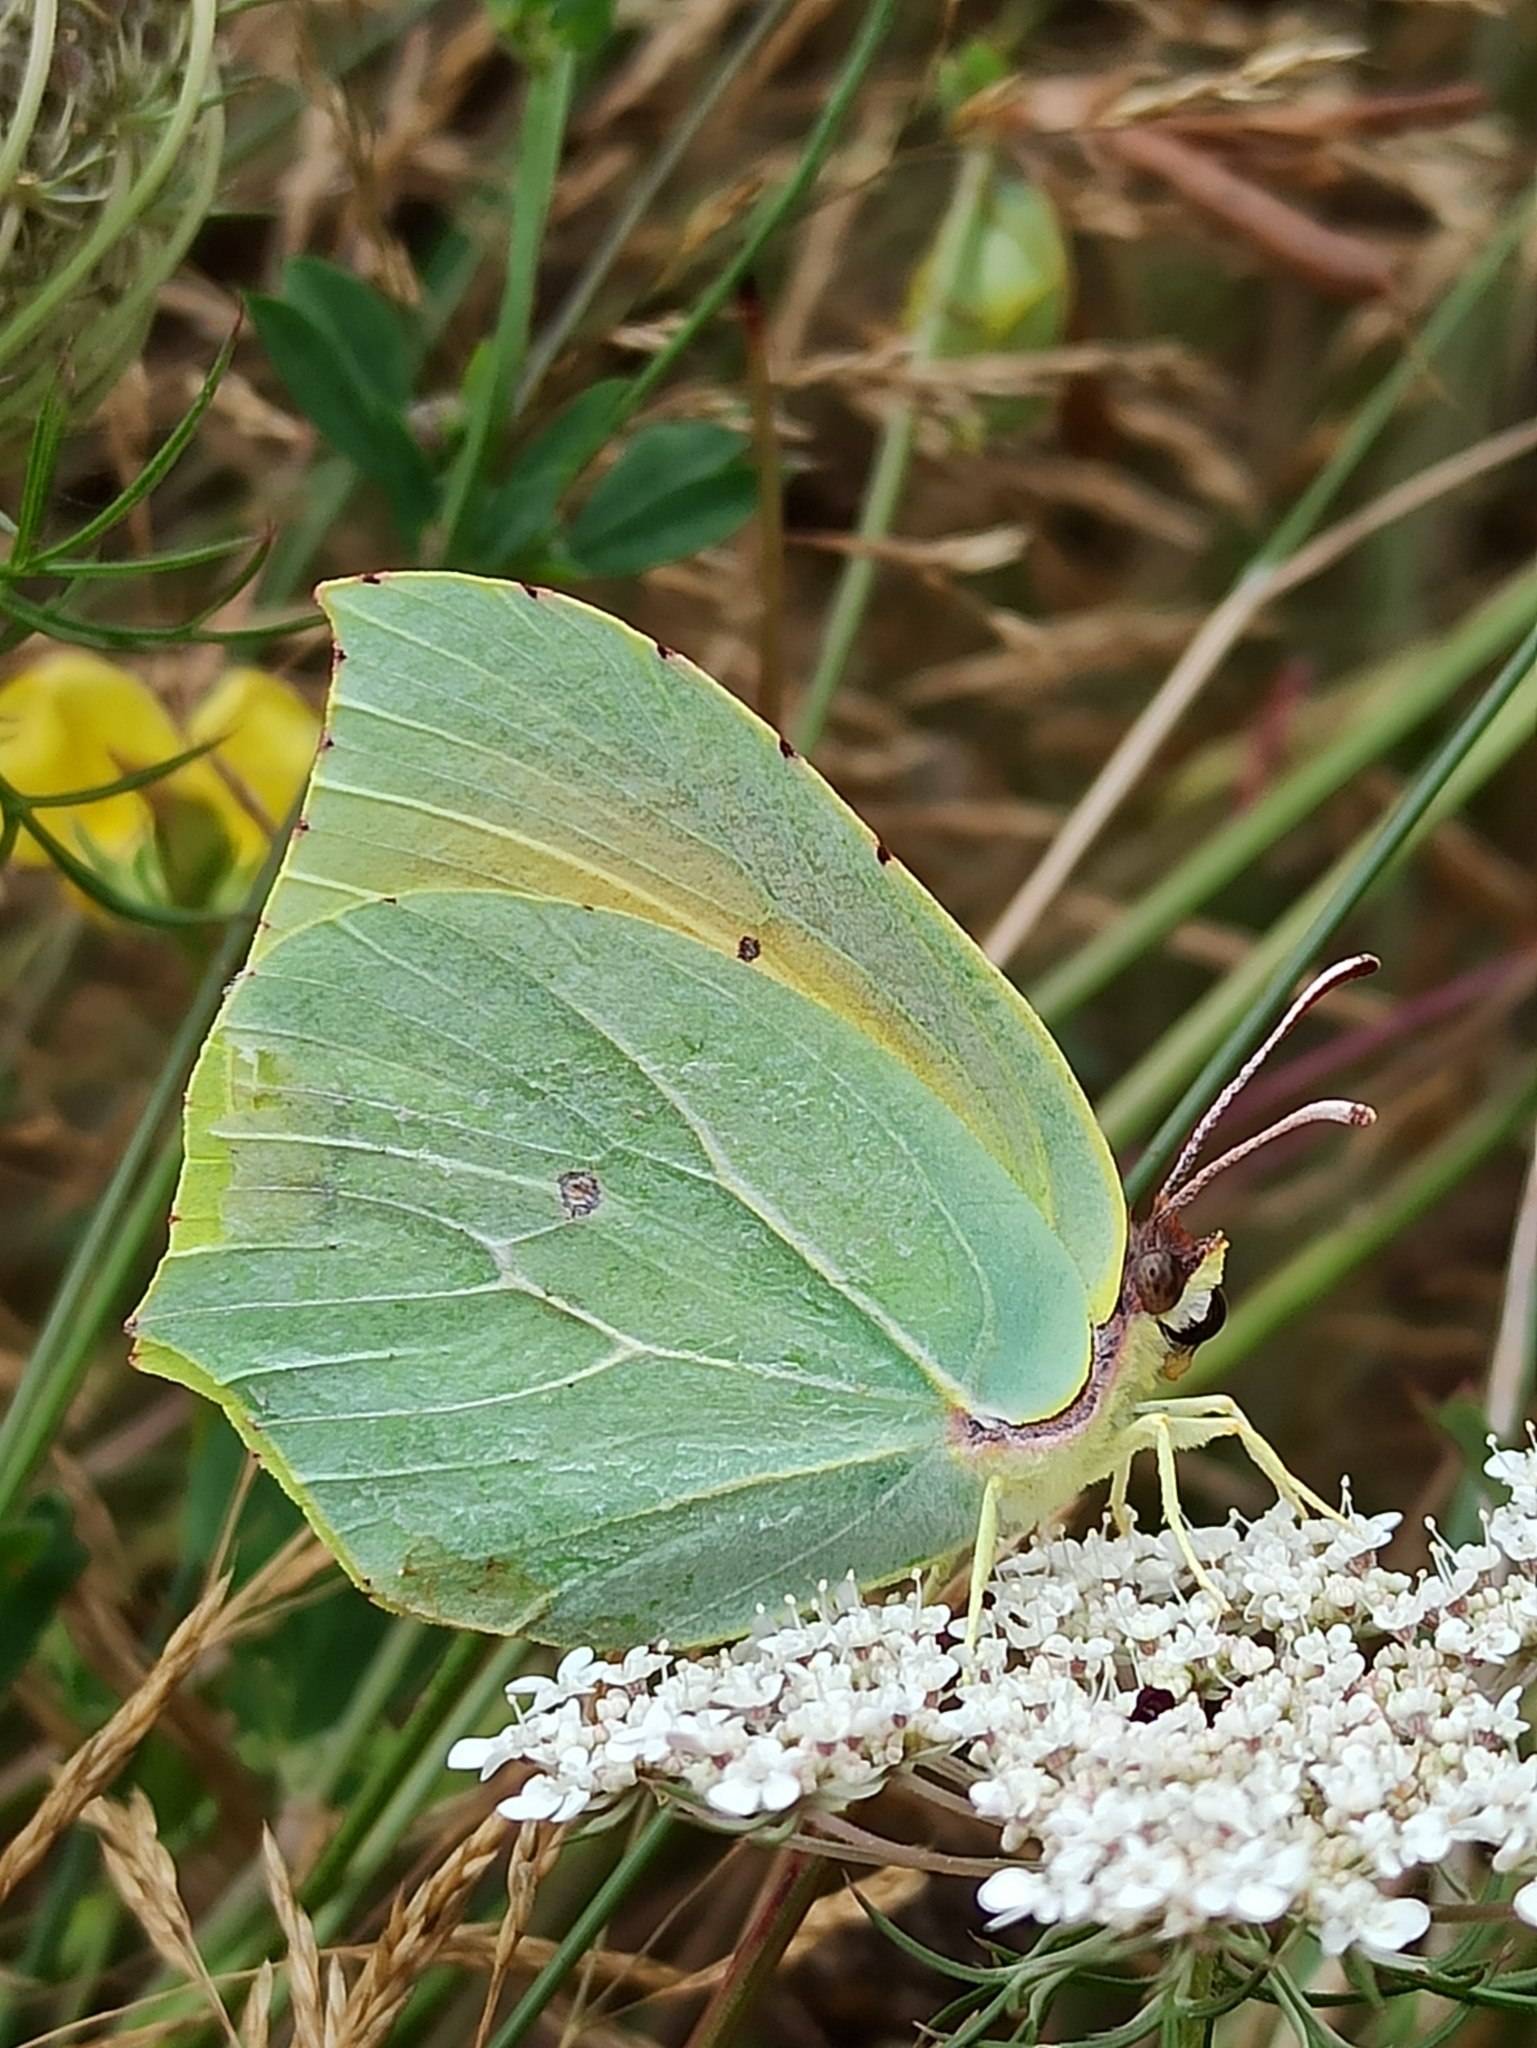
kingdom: Animalia
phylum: Arthropoda
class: Insecta
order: Lepidoptera
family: Pieridae
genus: Gonepteryx
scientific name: Gonepteryx cleopatra
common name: Cleopatra
